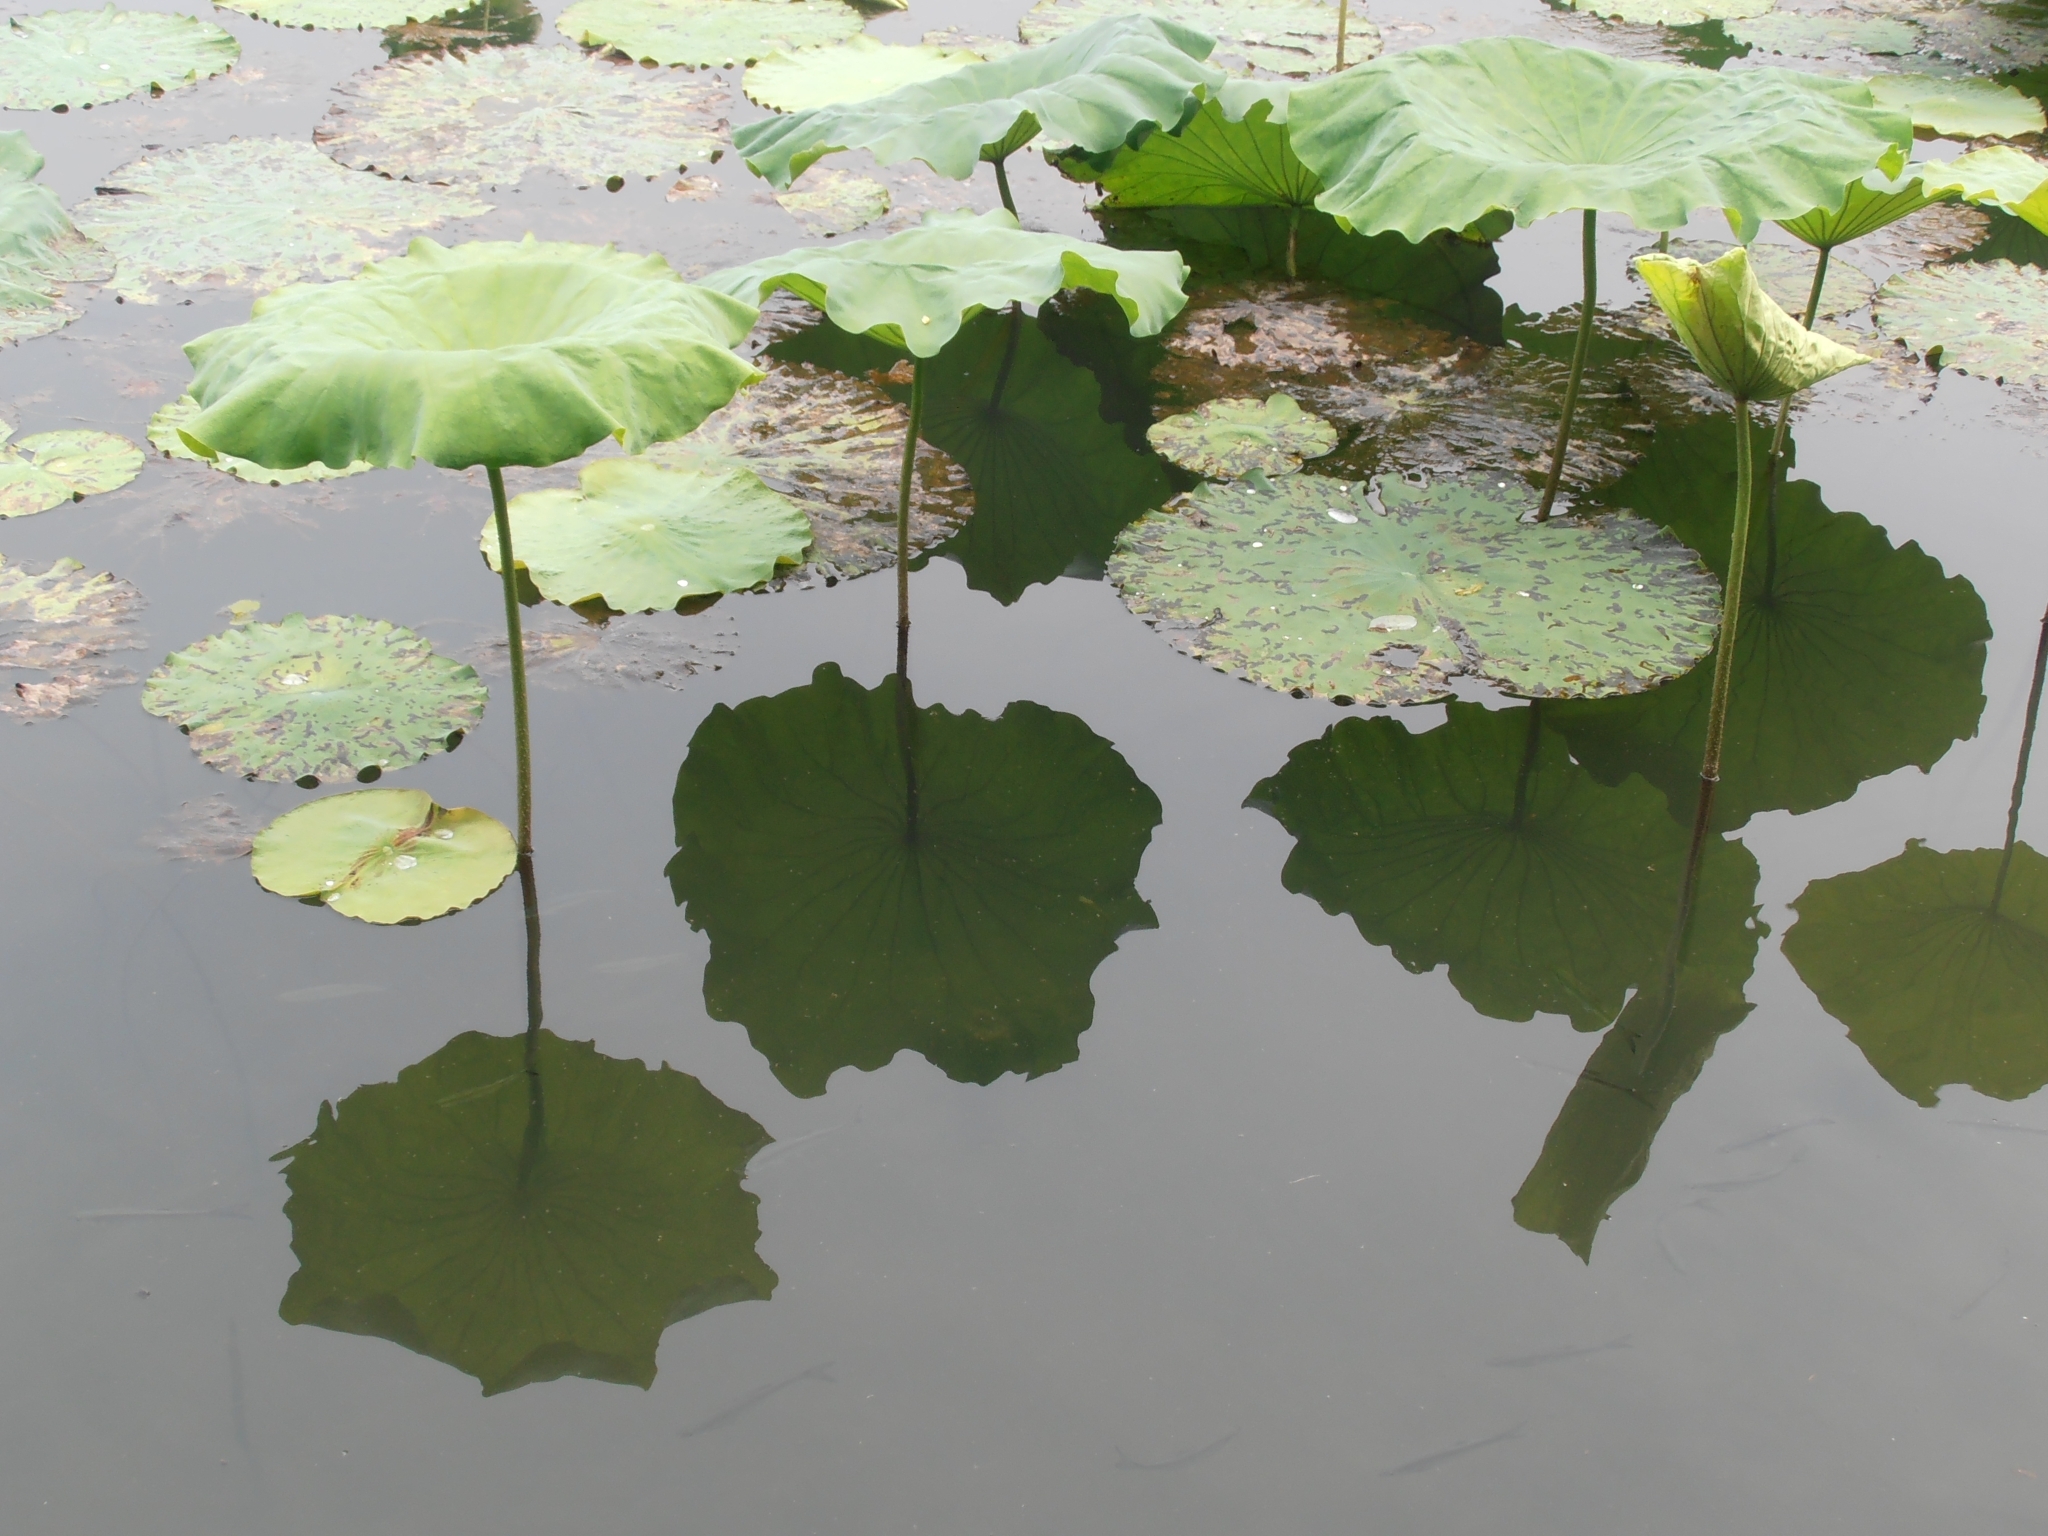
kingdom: Plantae
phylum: Tracheophyta
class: Magnoliopsida
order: Proteales
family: Nelumbonaceae
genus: Nelumbo
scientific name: Nelumbo nucifera
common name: Sacred lotus
